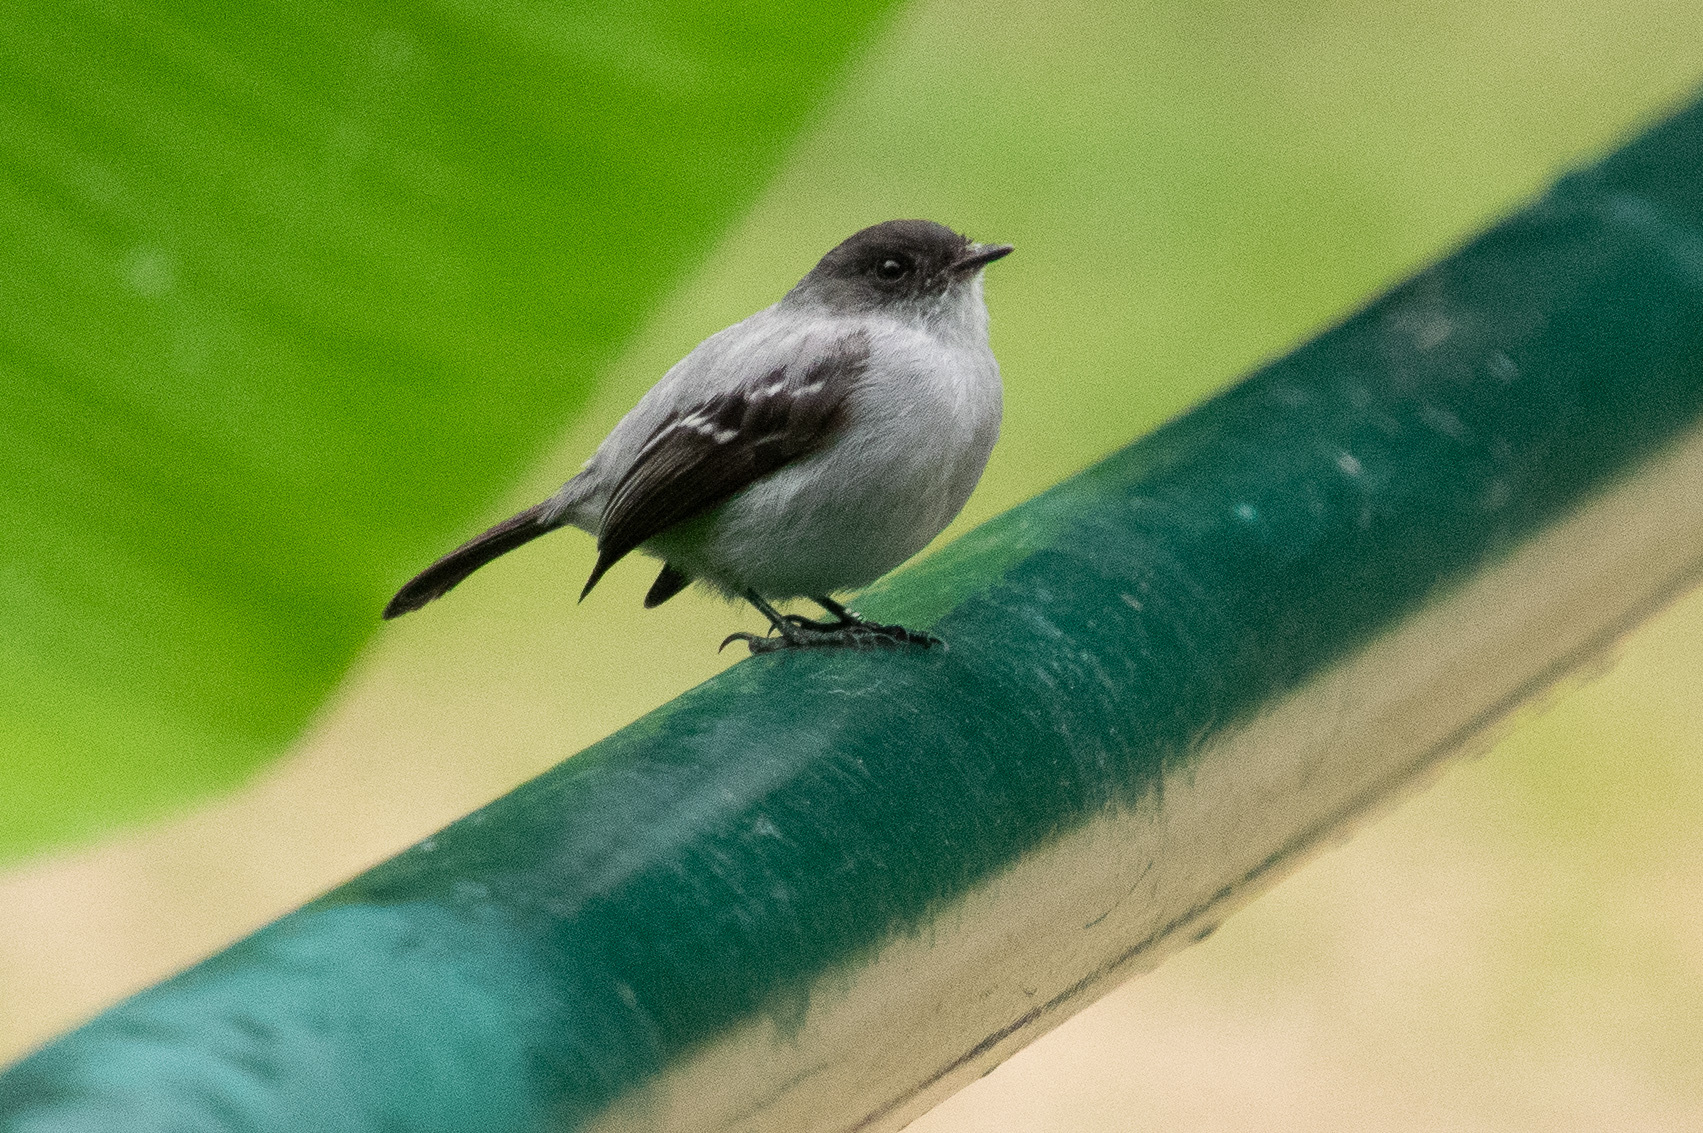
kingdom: Animalia
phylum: Chordata
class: Aves
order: Passeriformes
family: Tyrannidae
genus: Serpophaga
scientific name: Serpophaga cinerea
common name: Torrent tyrannulet
